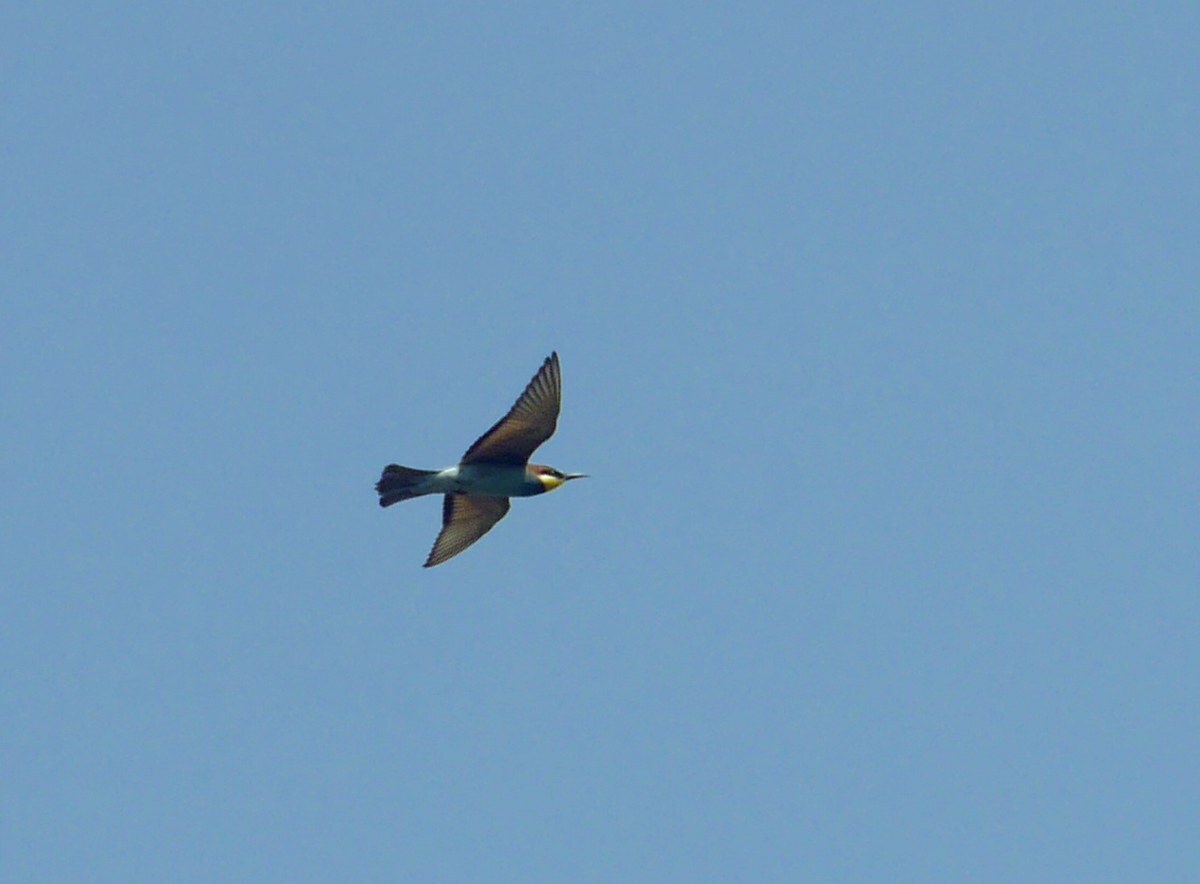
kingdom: Animalia
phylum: Chordata
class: Aves
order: Coraciiformes
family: Meropidae
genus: Merops
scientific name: Merops apiaster
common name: European bee-eater
